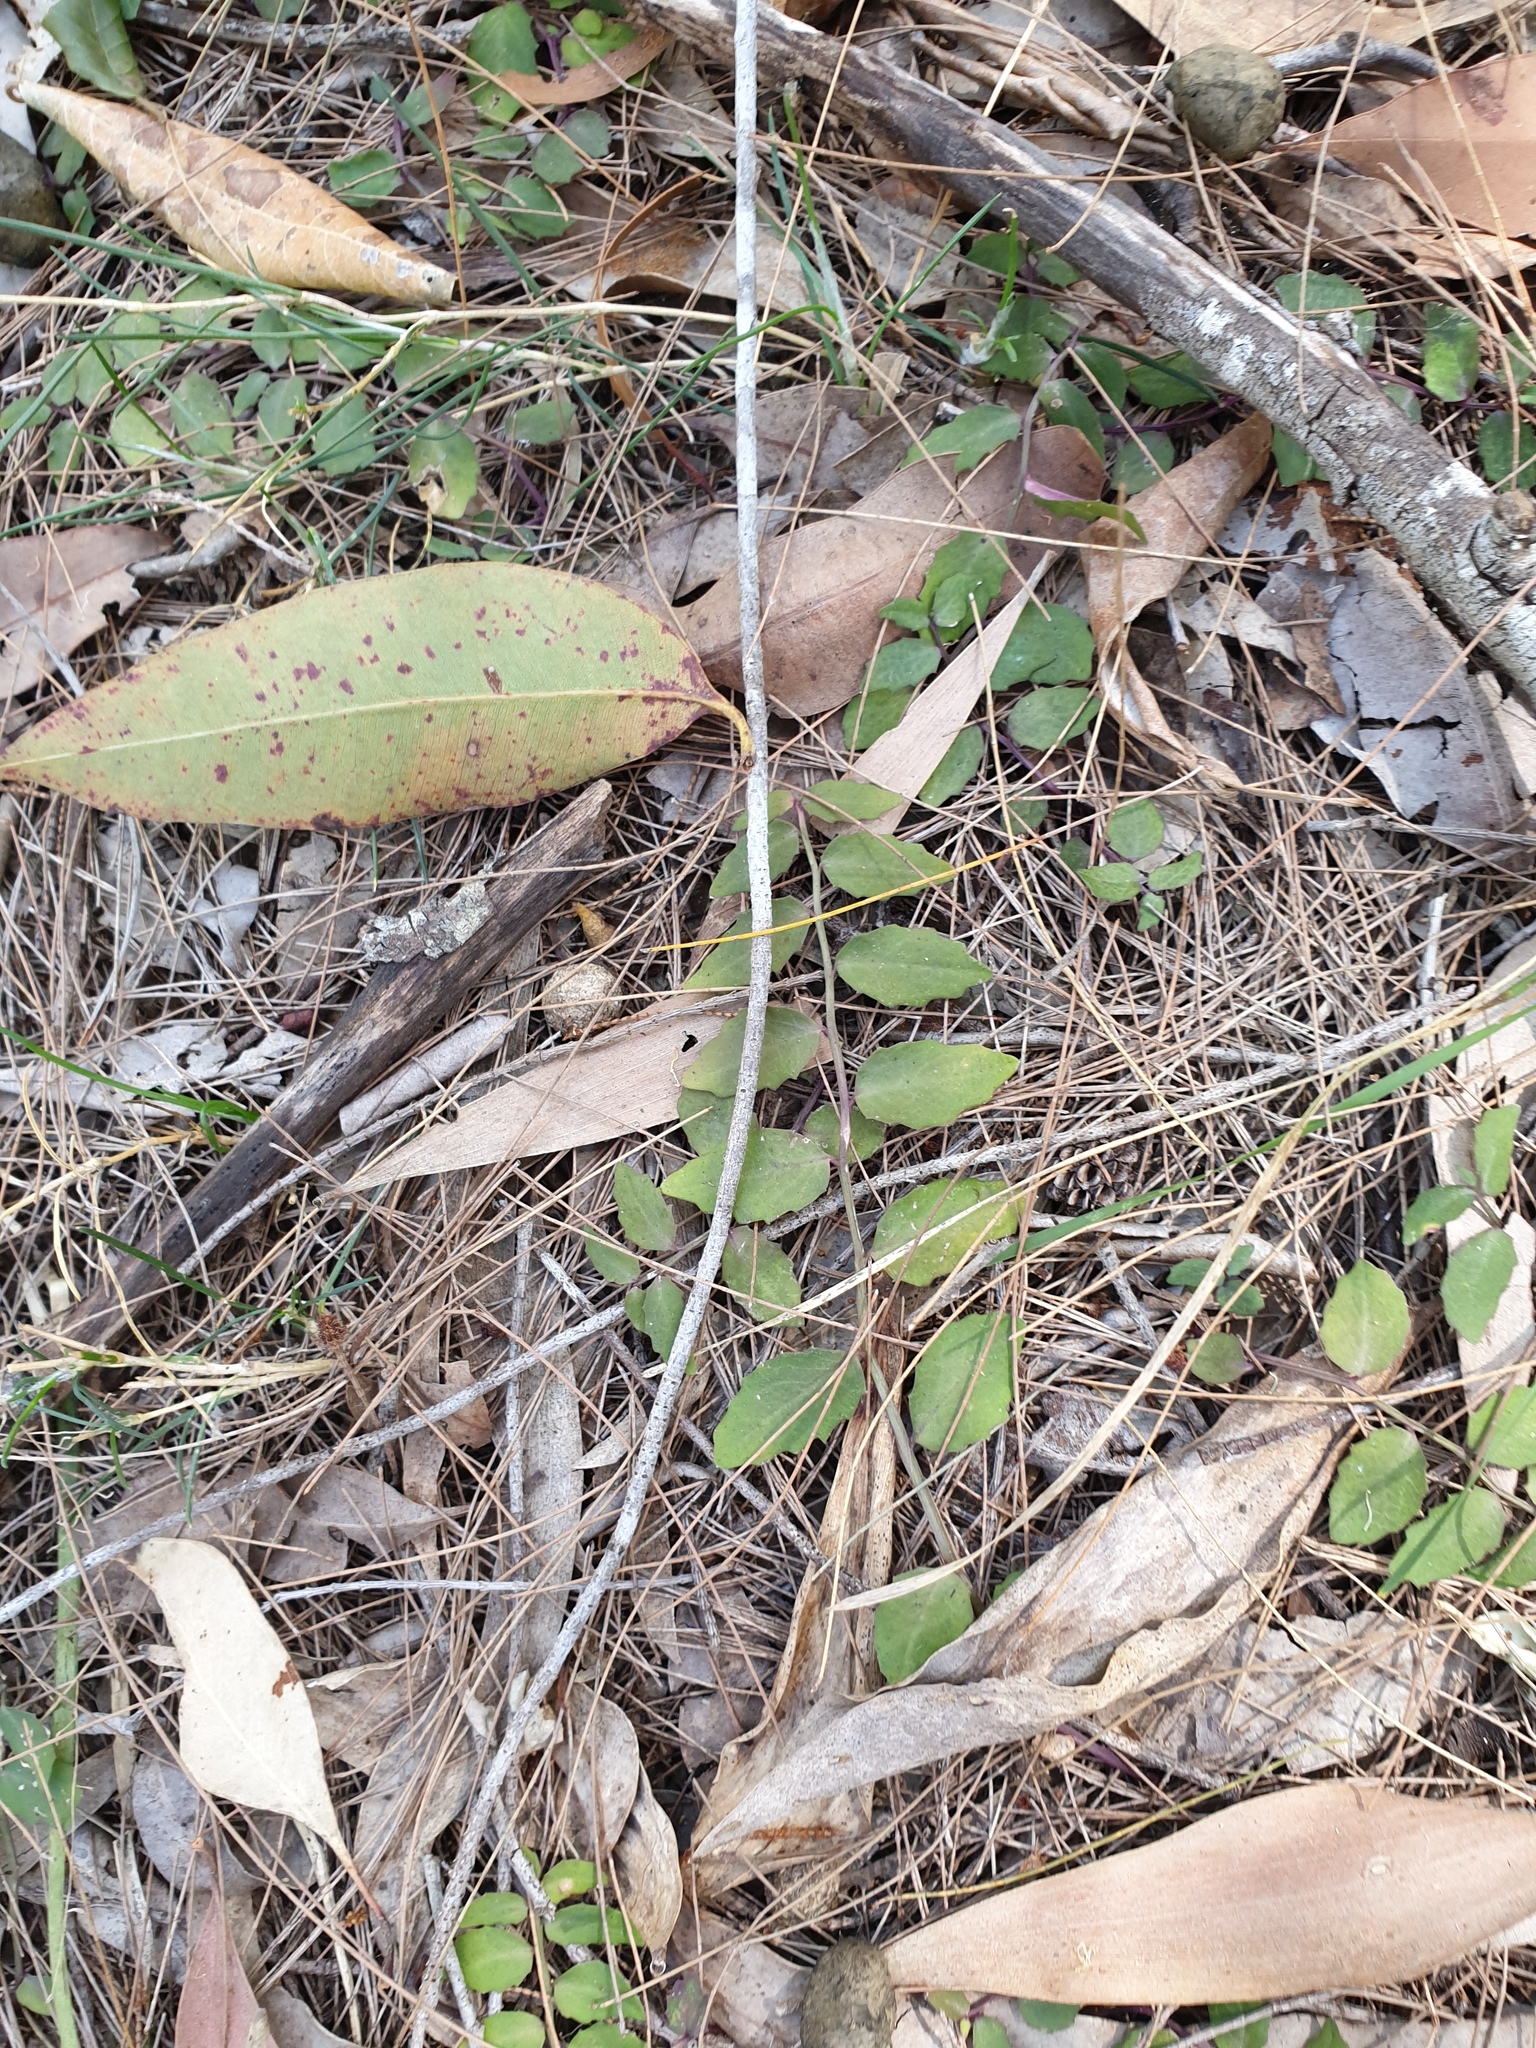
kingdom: Plantae
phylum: Tracheophyta
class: Magnoliopsida
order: Asterales
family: Campanulaceae
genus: Lobelia
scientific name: Lobelia purpurascens
